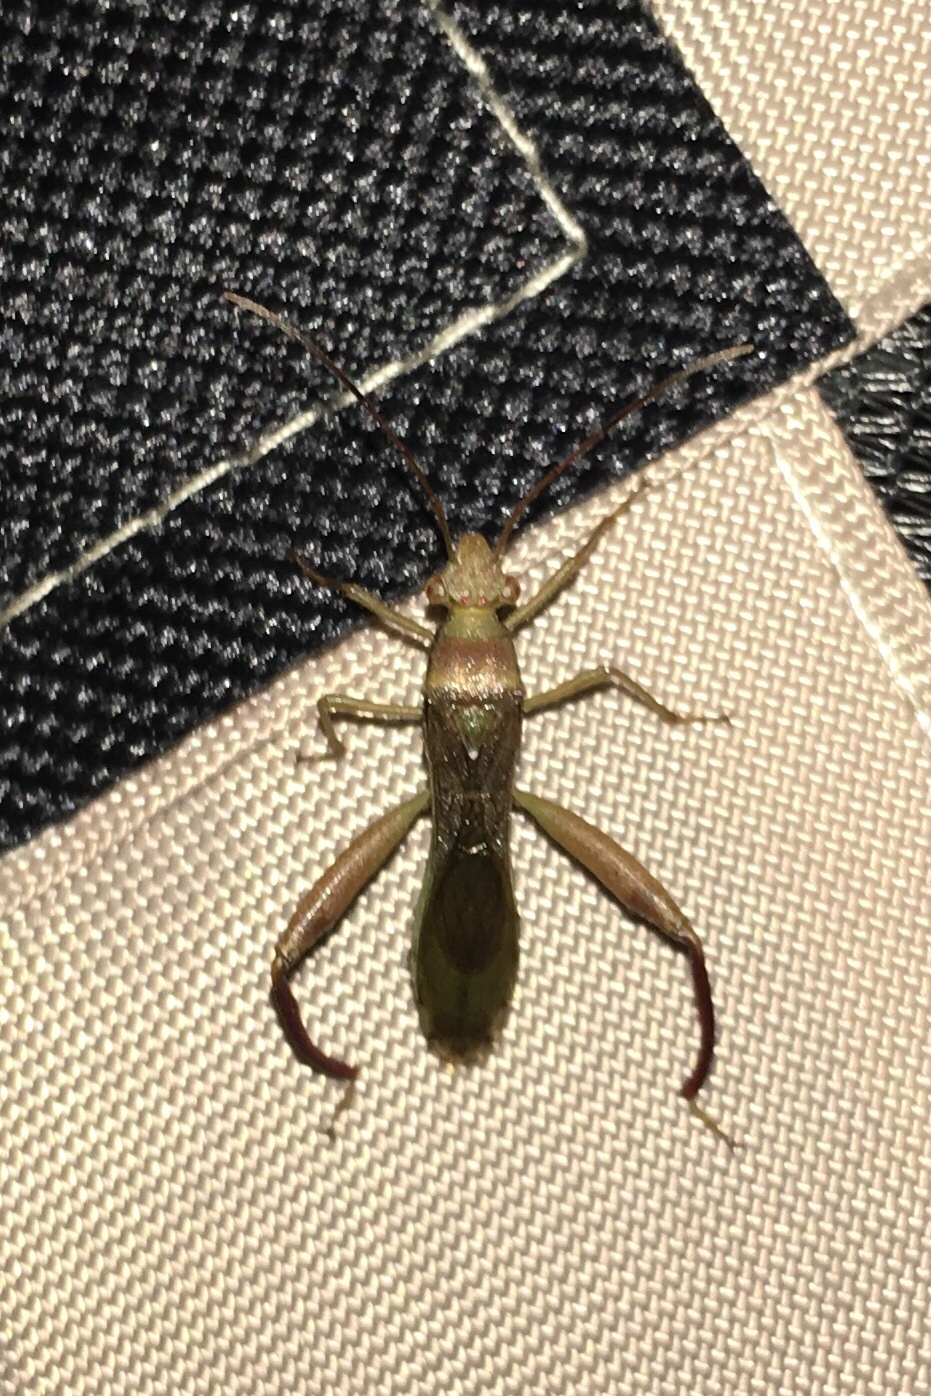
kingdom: Animalia
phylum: Arthropoda
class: Insecta
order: Hemiptera
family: Alydidae
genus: Hyalymenus
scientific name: Hyalymenus tarsatus
